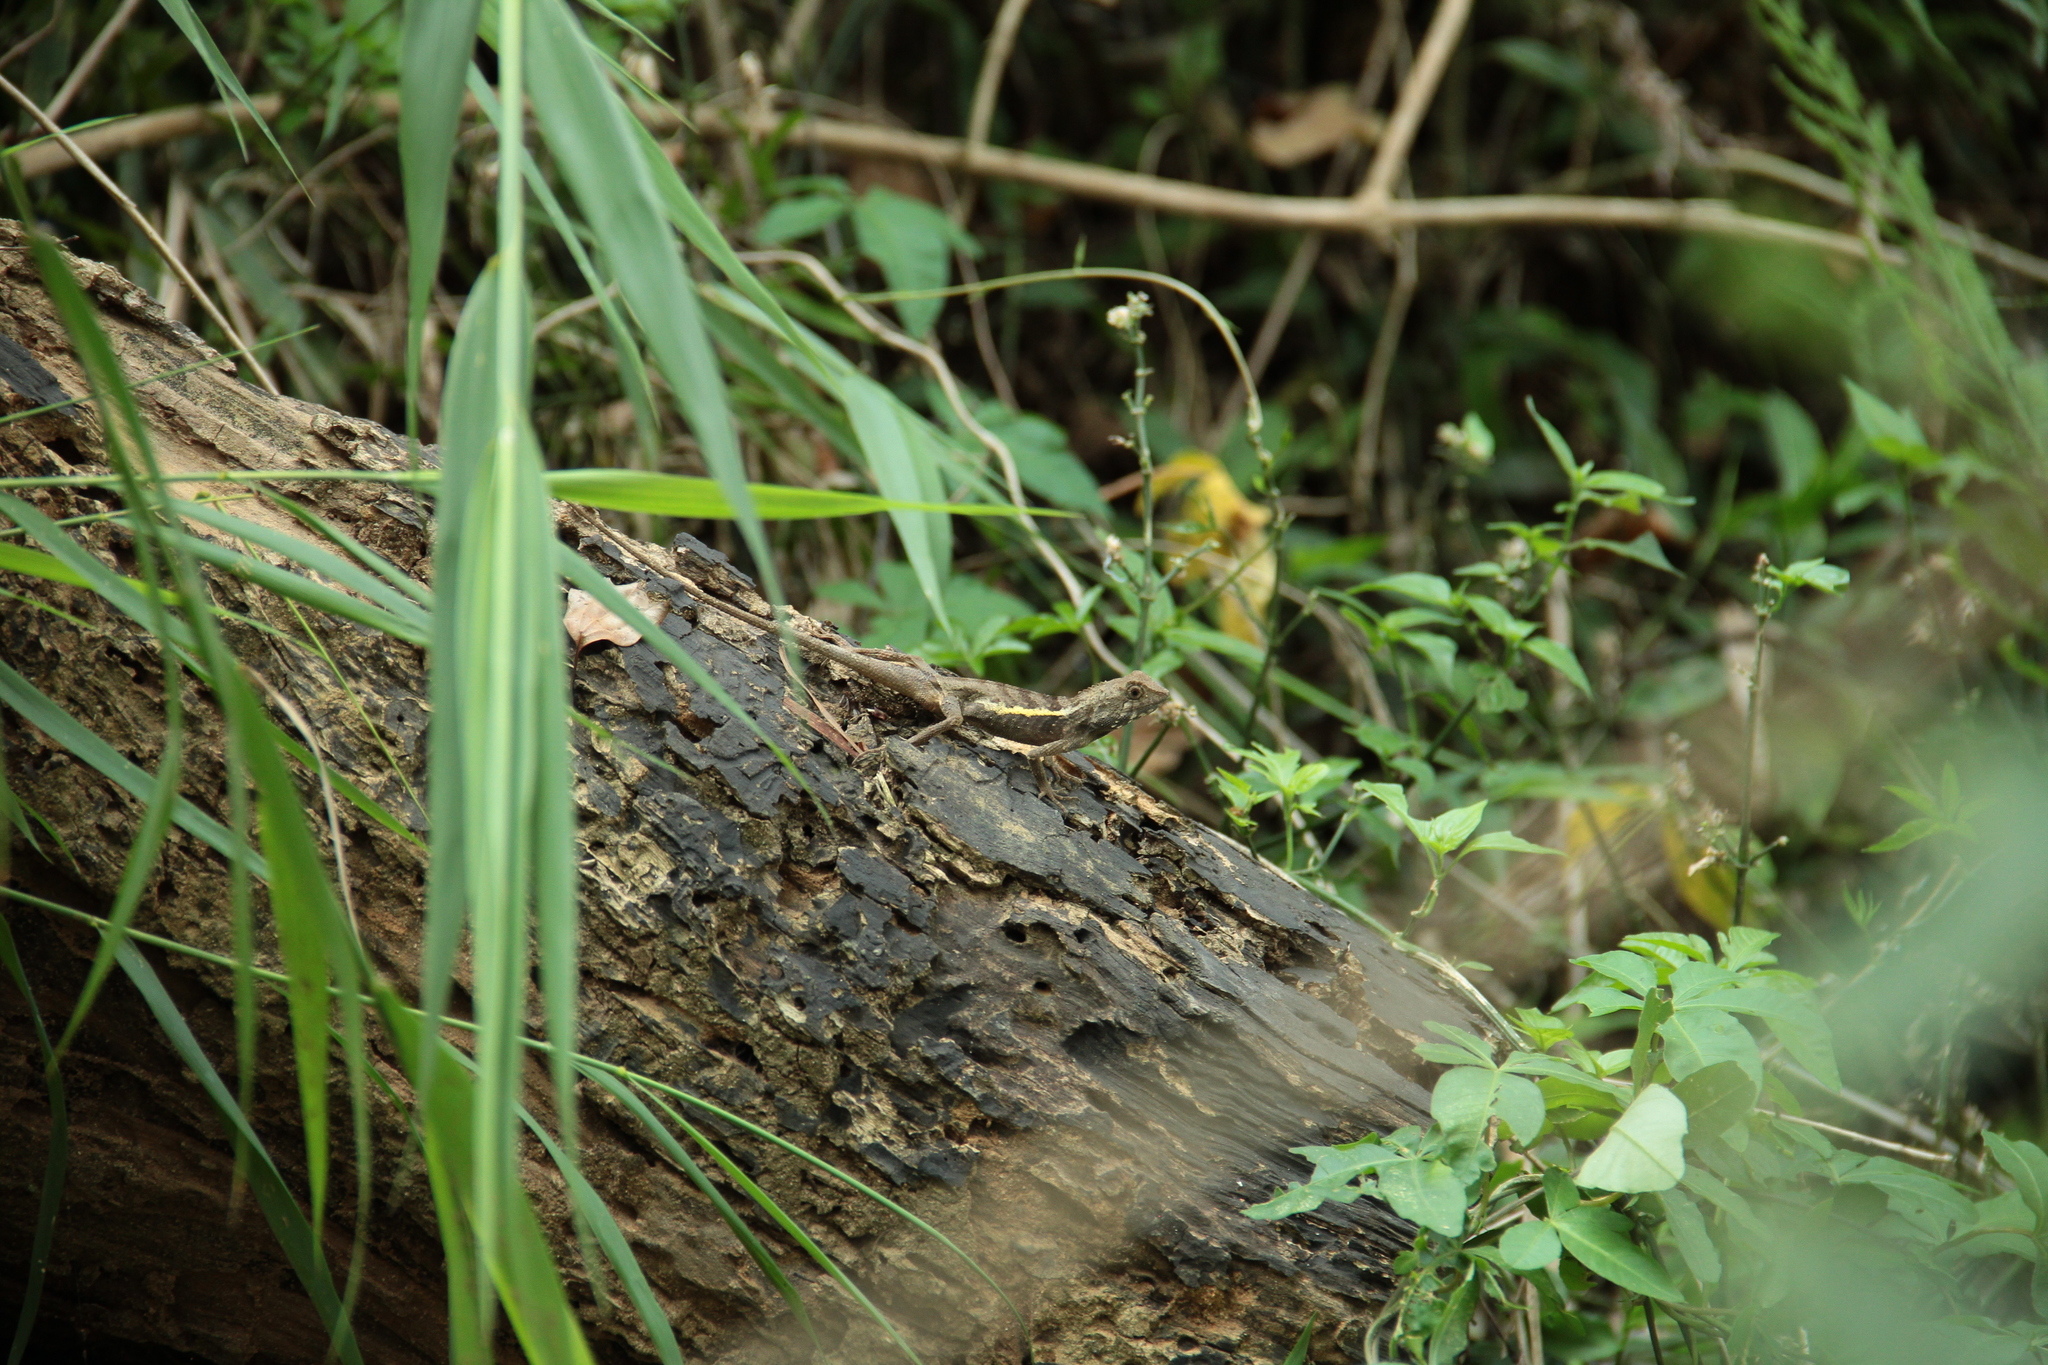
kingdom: Animalia
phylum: Chordata
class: Squamata
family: Agamidae
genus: Diploderma
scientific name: Diploderma swinhonis
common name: Taiwan japalure
